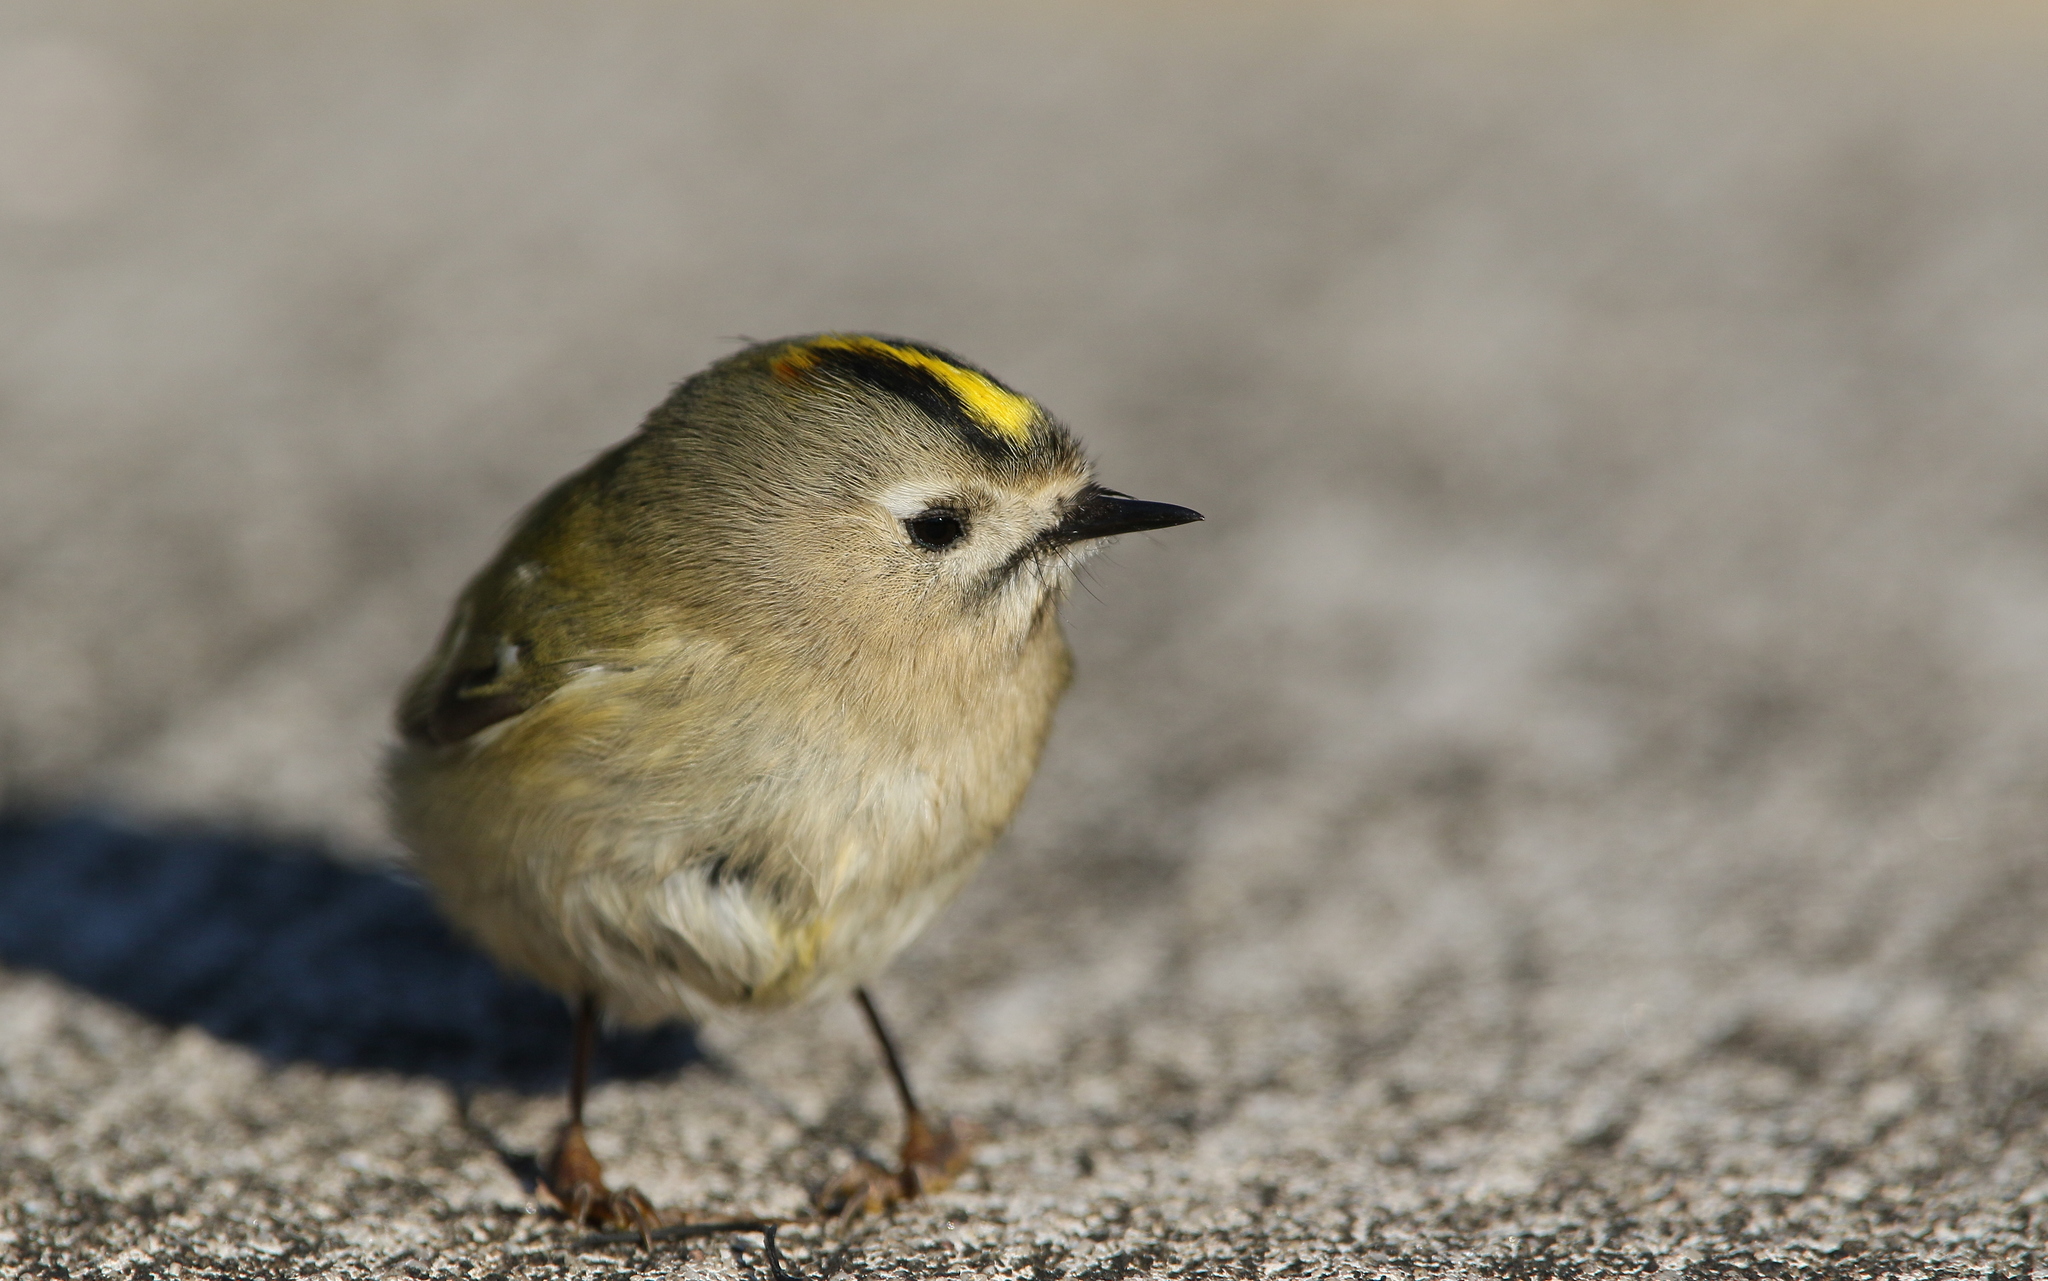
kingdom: Animalia
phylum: Chordata
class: Aves
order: Passeriformes
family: Regulidae
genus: Regulus
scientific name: Regulus regulus
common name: Goldcrest
